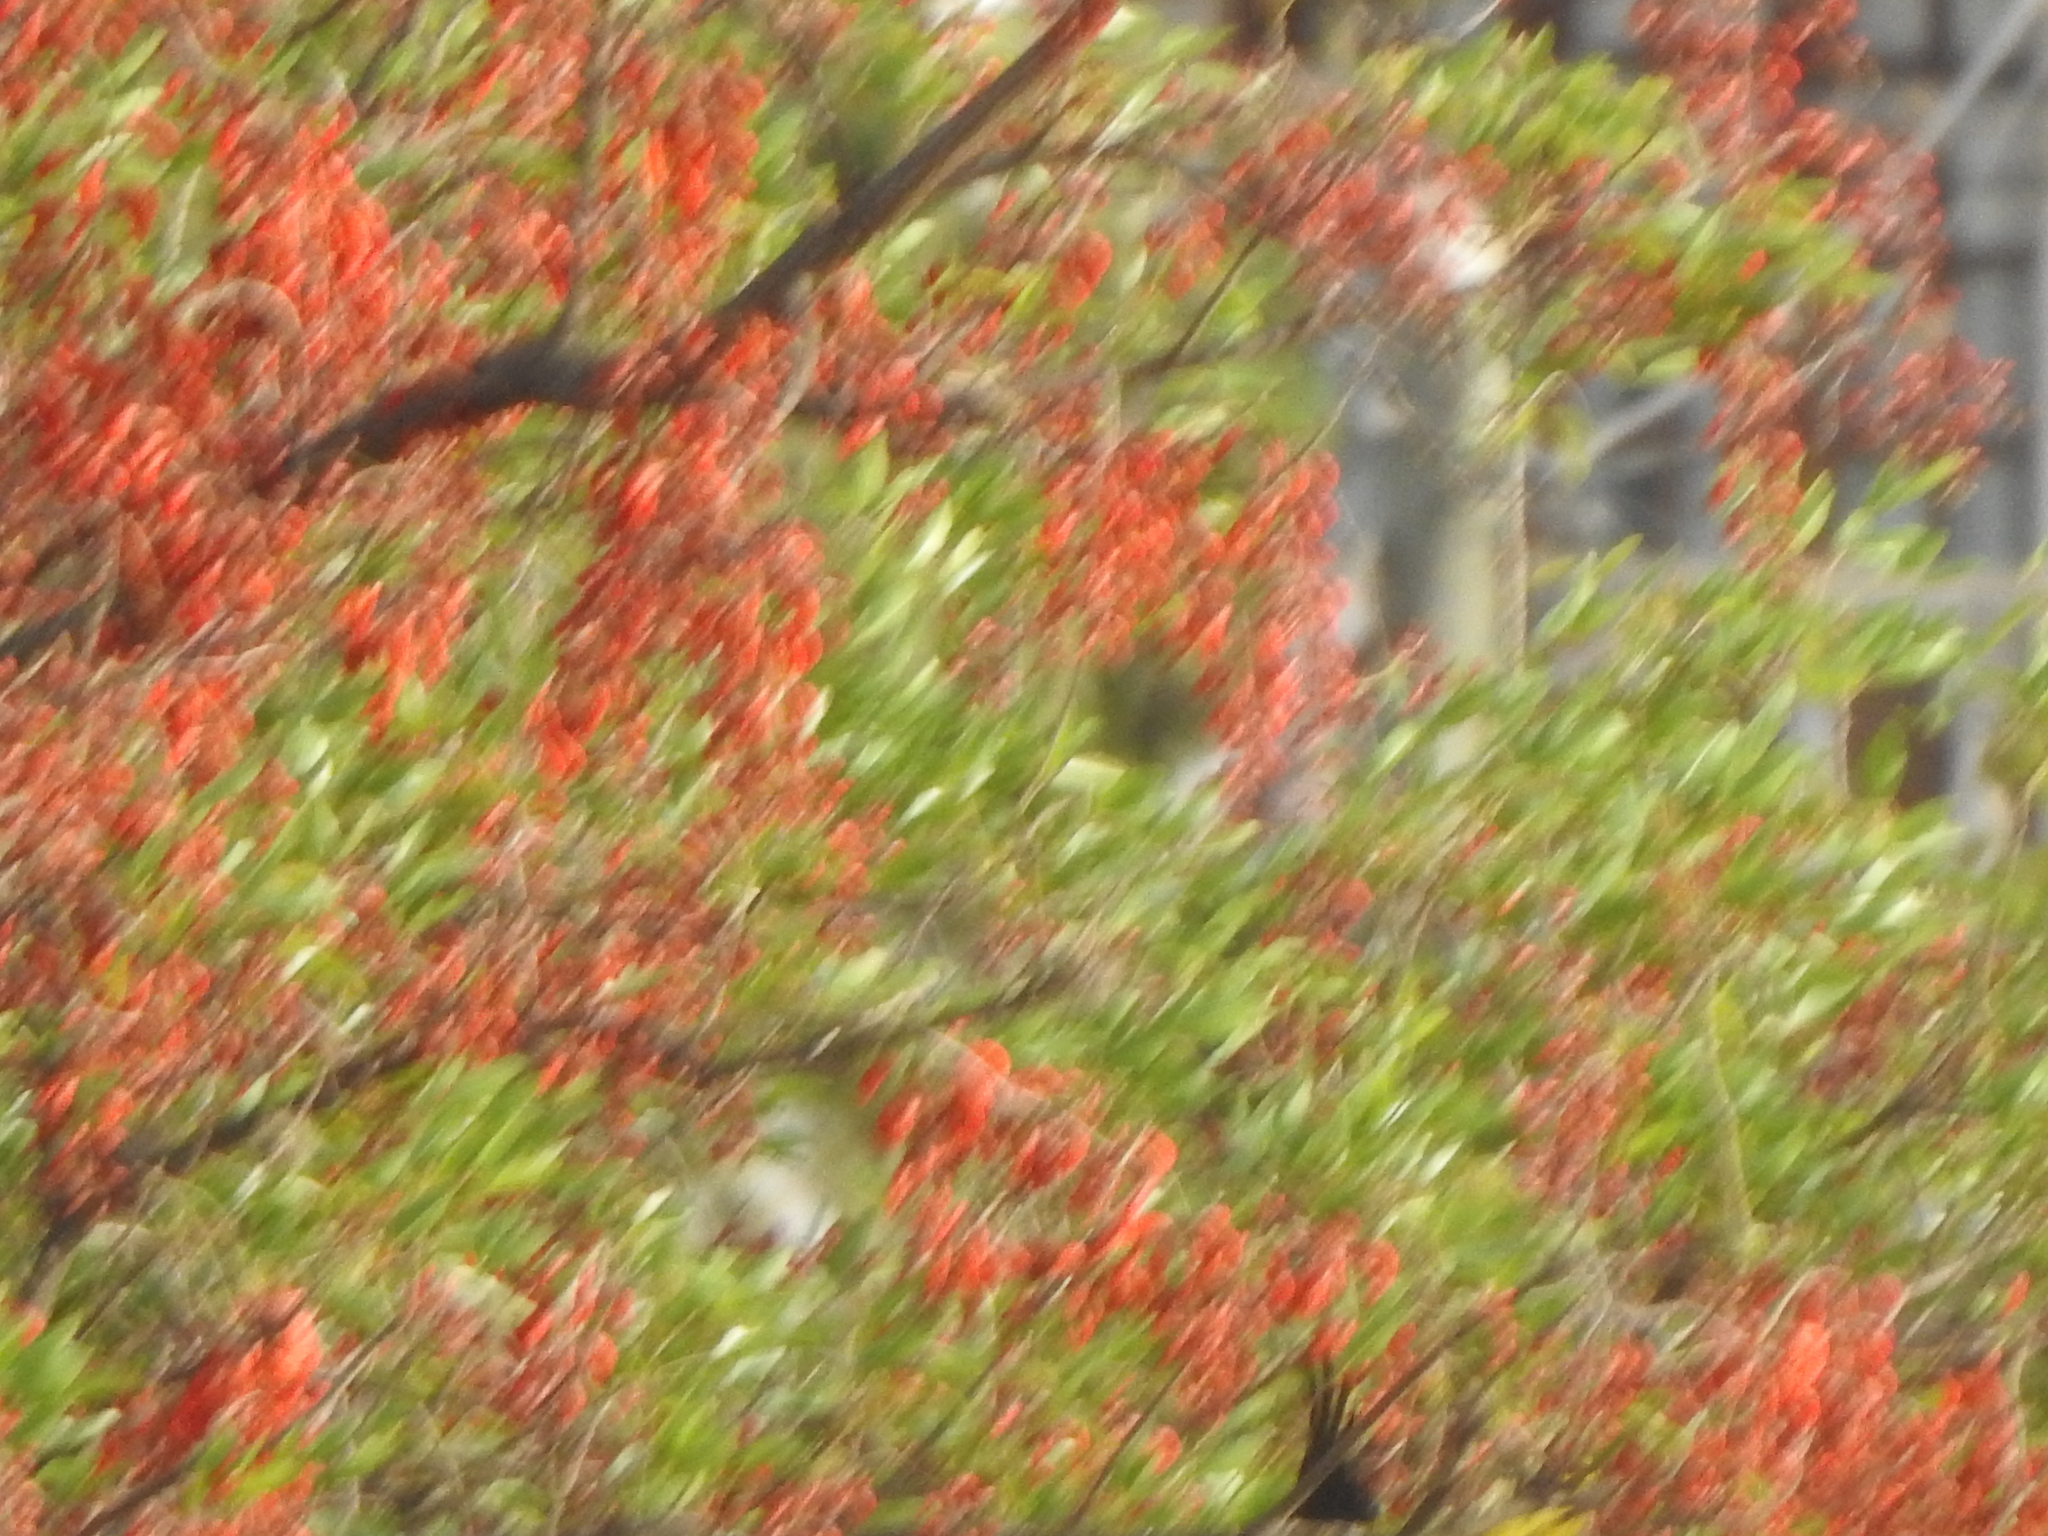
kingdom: Plantae
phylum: Tracheophyta
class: Magnoliopsida
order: Fabales
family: Fabaceae
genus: Erythrina
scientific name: Erythrina falcata
